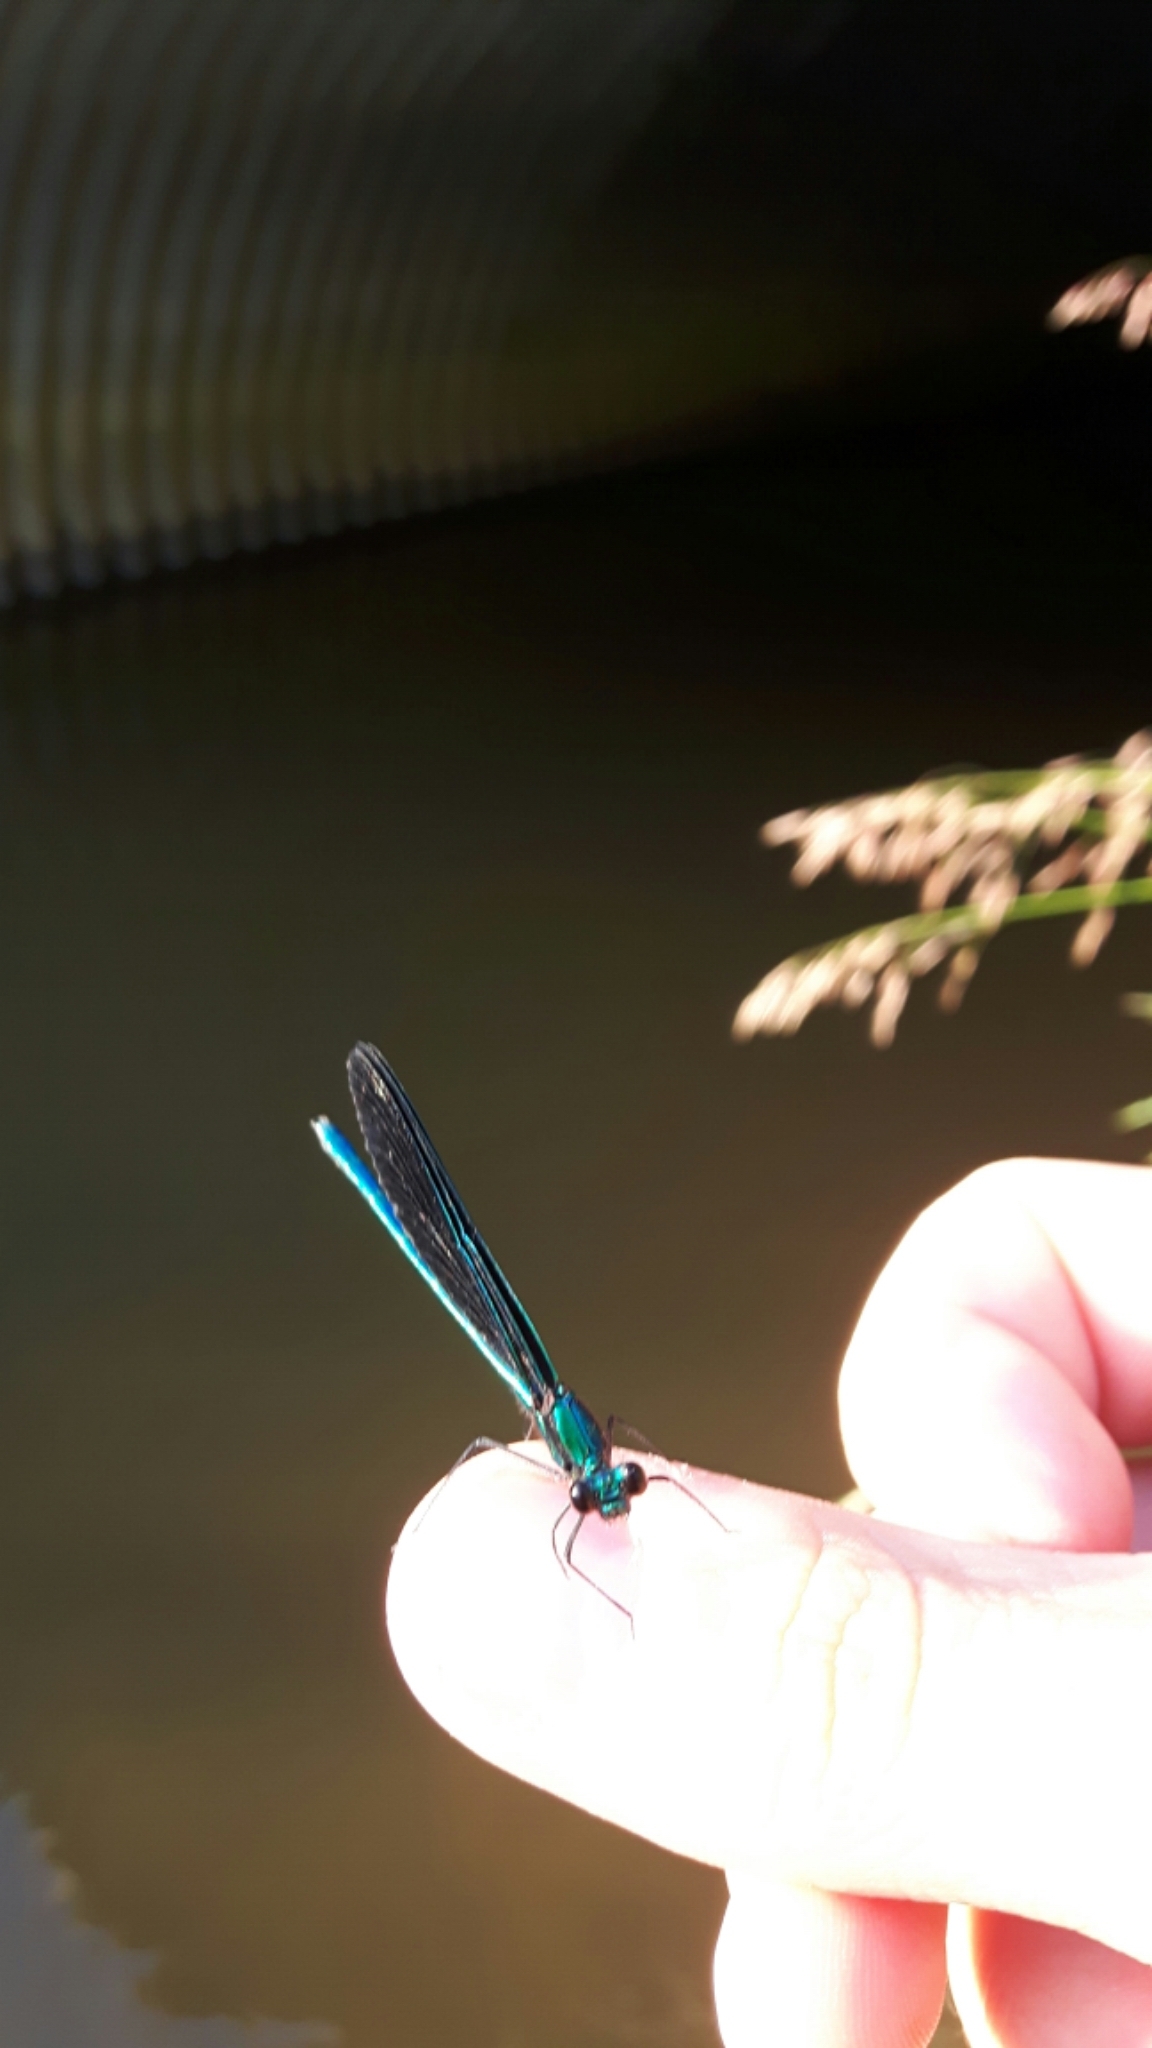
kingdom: Animalia
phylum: Arthropoda
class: Insecta
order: Odonata
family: Calopterygidae
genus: Calopteryx
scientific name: Calopteryx maculata
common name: Ebony jewelwing
